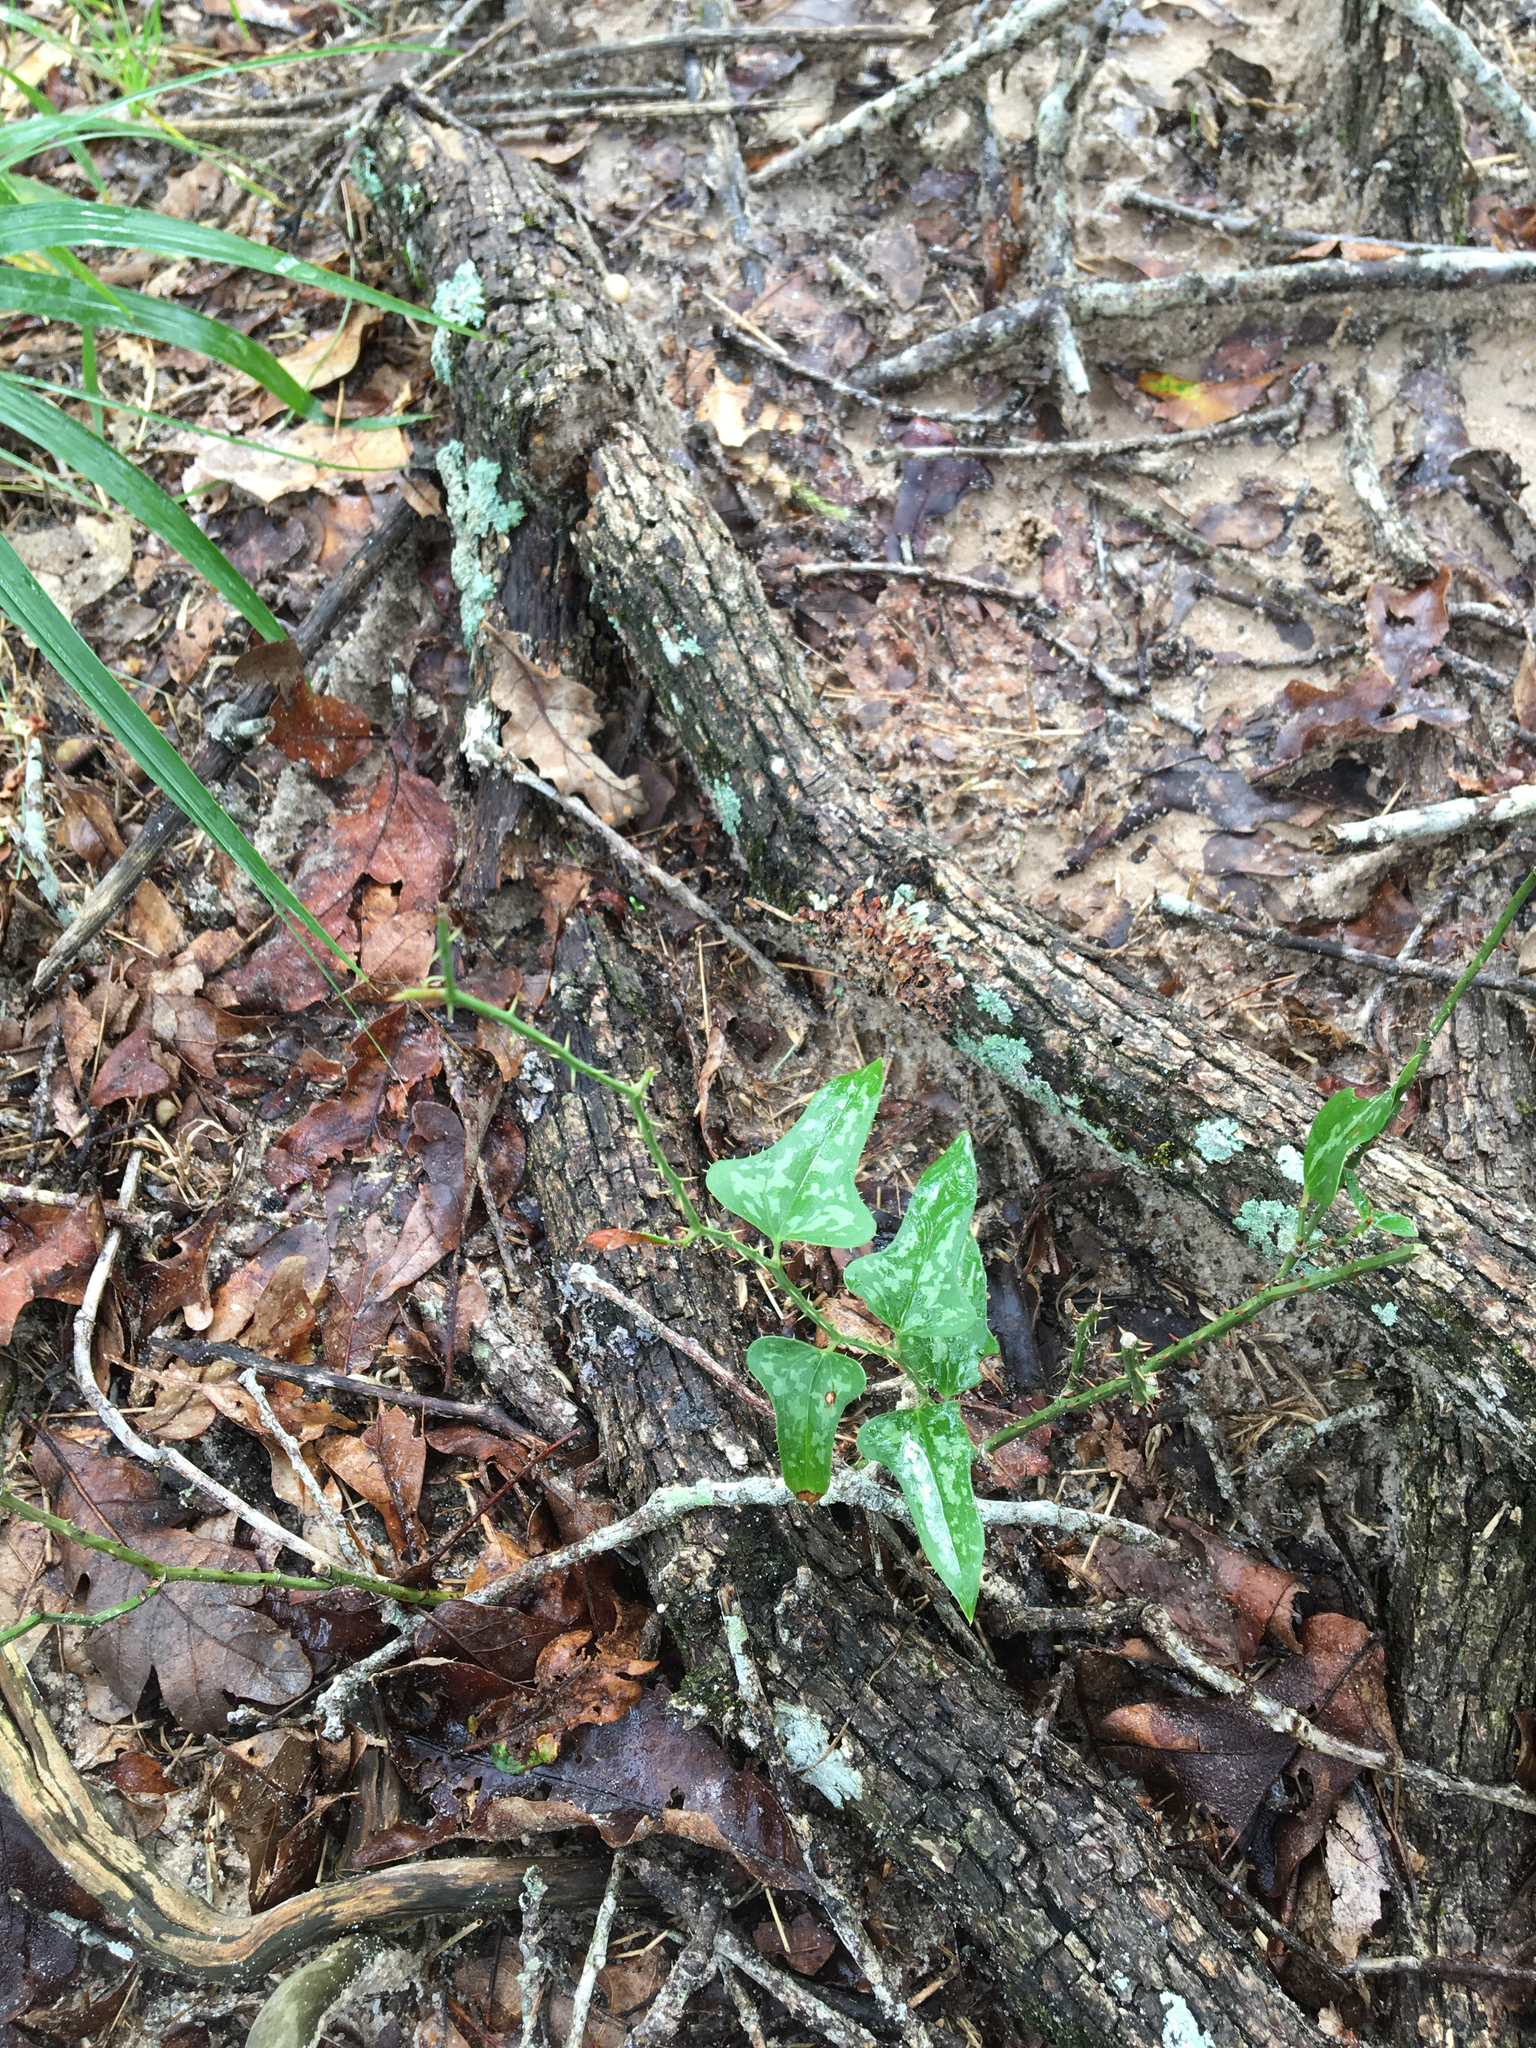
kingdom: Plantae
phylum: Tracheophyta
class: Liliopsida
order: Liliales
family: Smilacaceae
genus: Smilax
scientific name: Smilax bona-nox
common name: Catbrier
